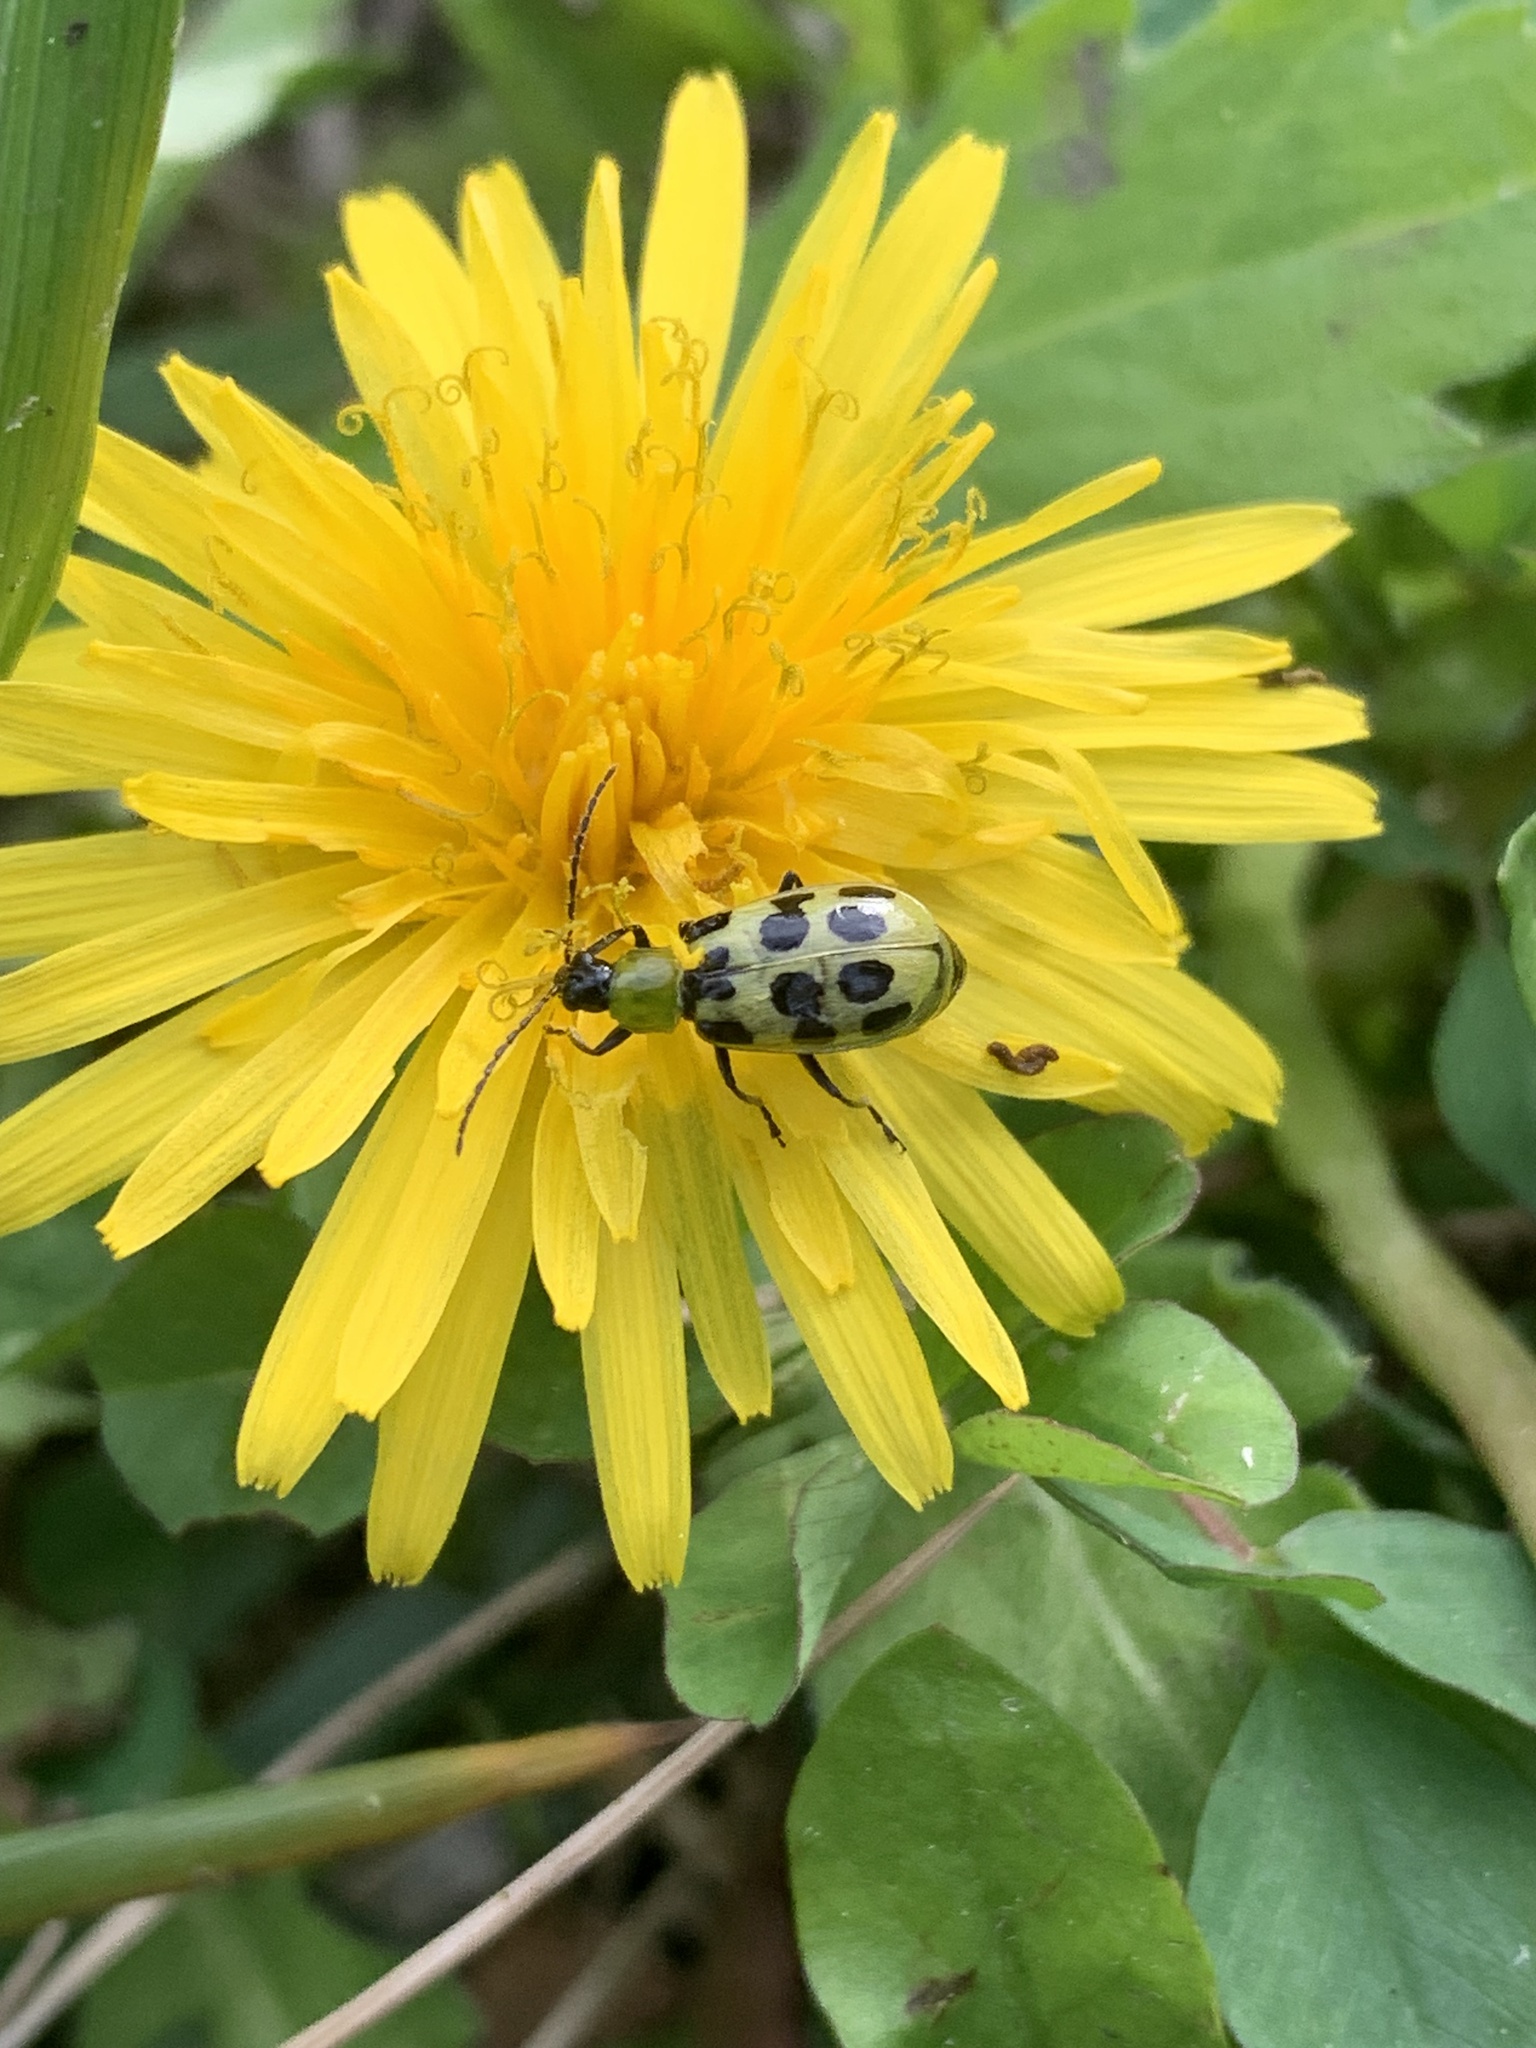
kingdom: Animalia
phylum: Arthropoda
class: Insecta
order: Coleoptera
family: Chrysomelidae
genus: Diabrotica
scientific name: Diabrotica undecimpunctata
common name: Spotted cucumber beetle
